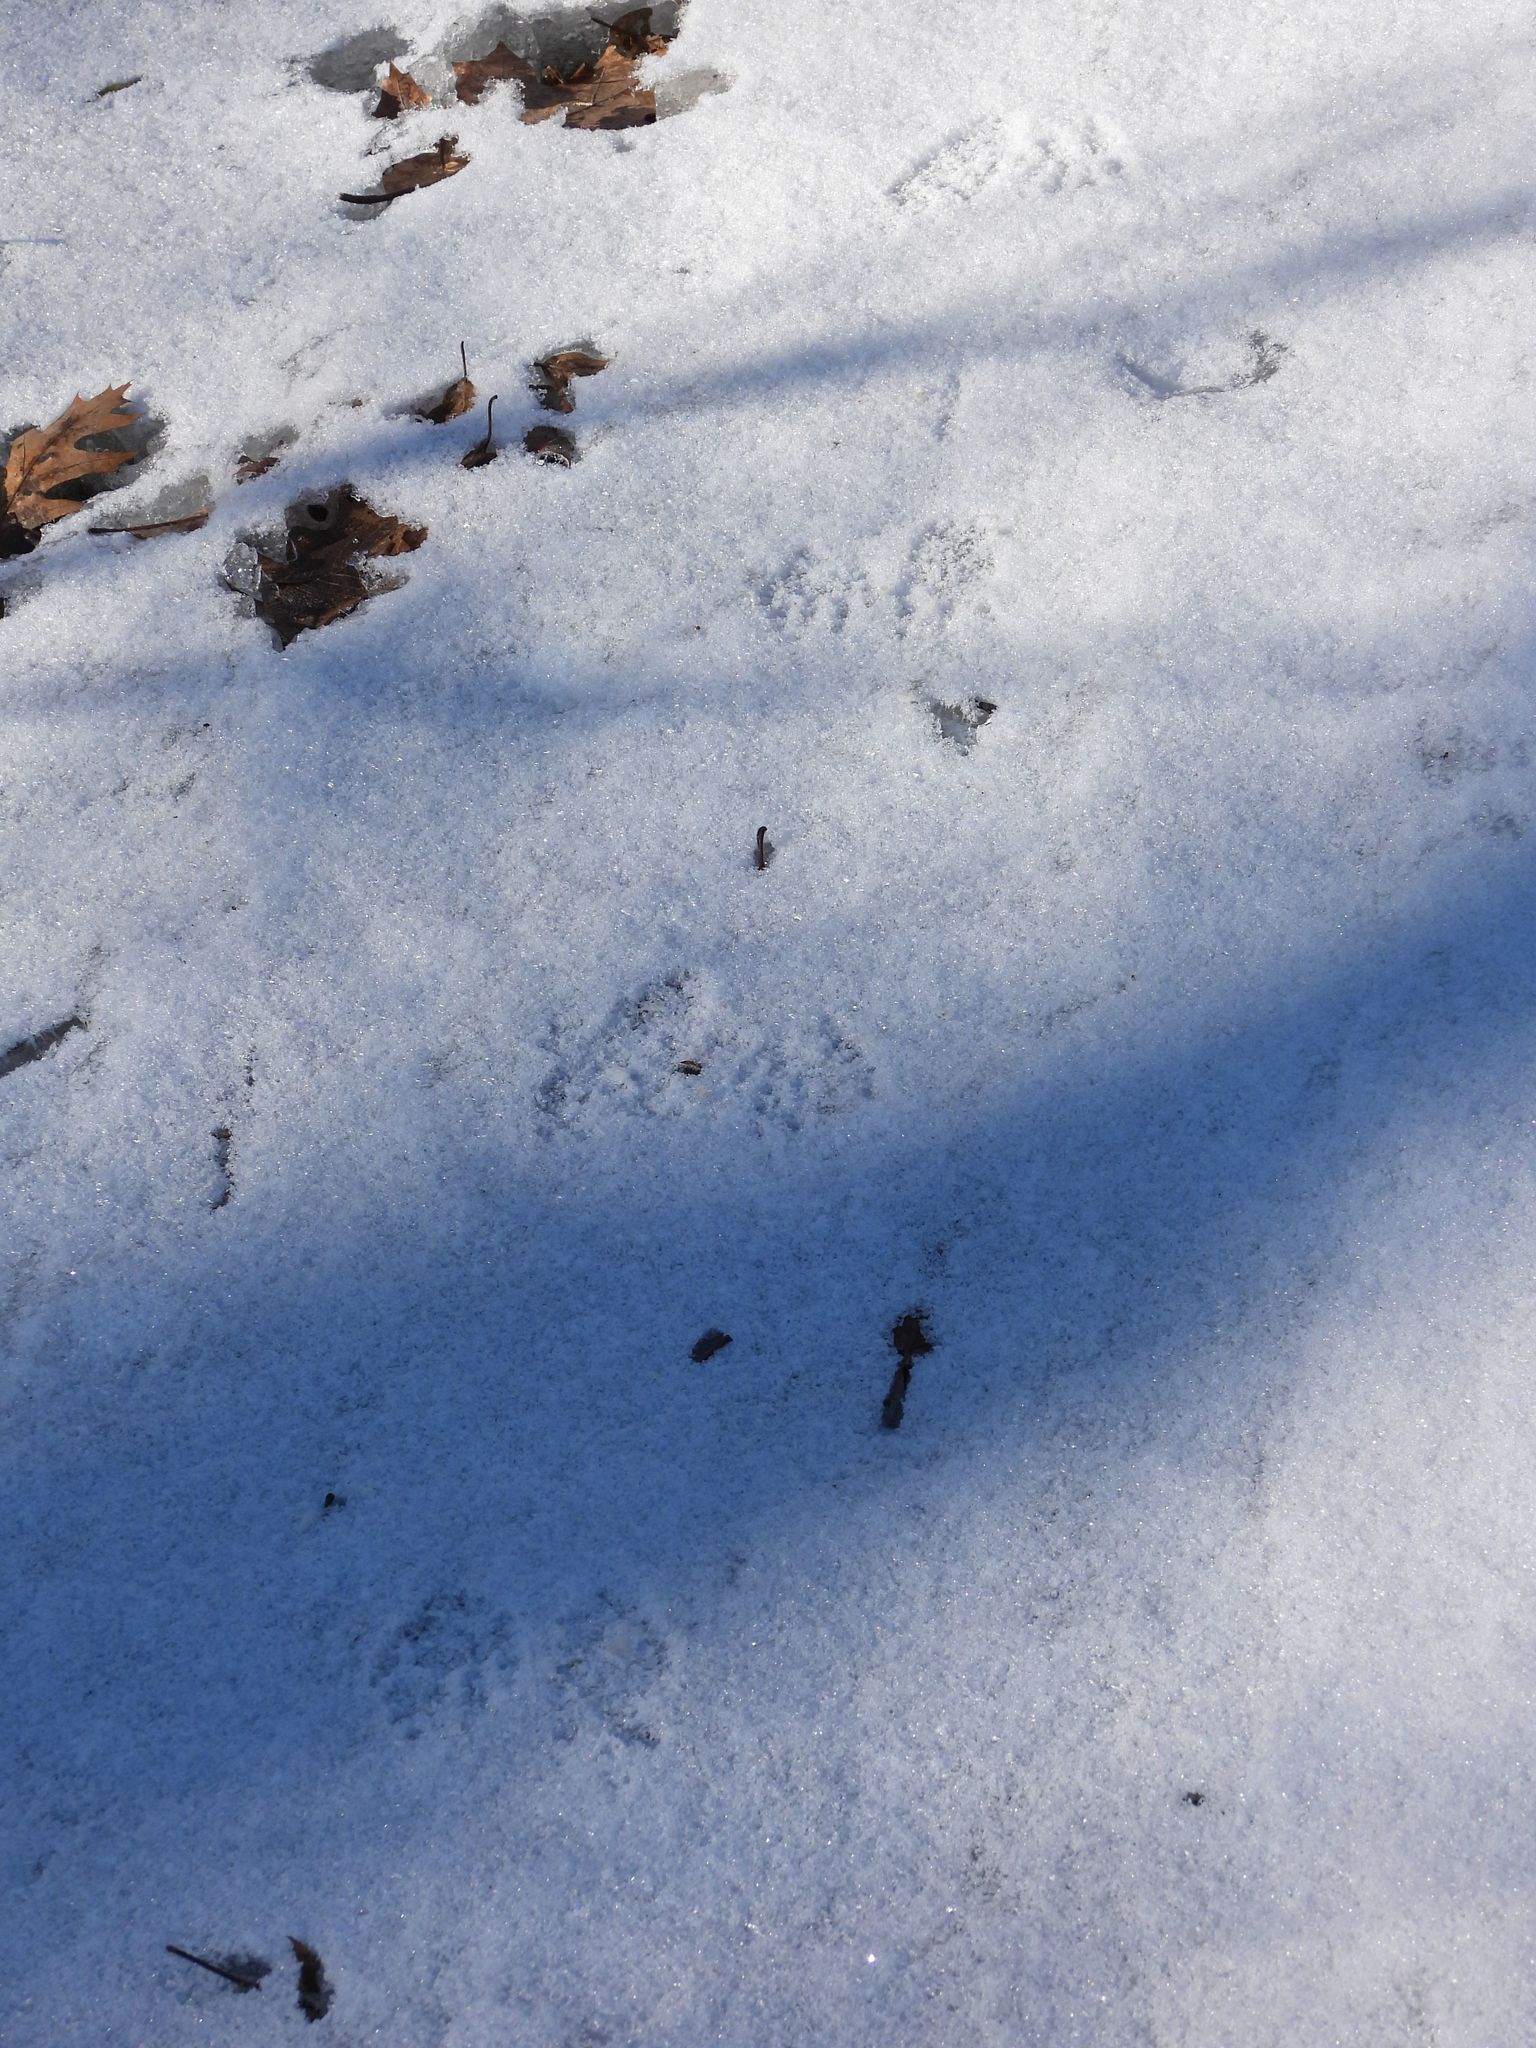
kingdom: Animalia
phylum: Chordata
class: Mammalia
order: Carnivora
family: Procyonidae
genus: Procyon
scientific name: Procyon lotor
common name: Raccoon
